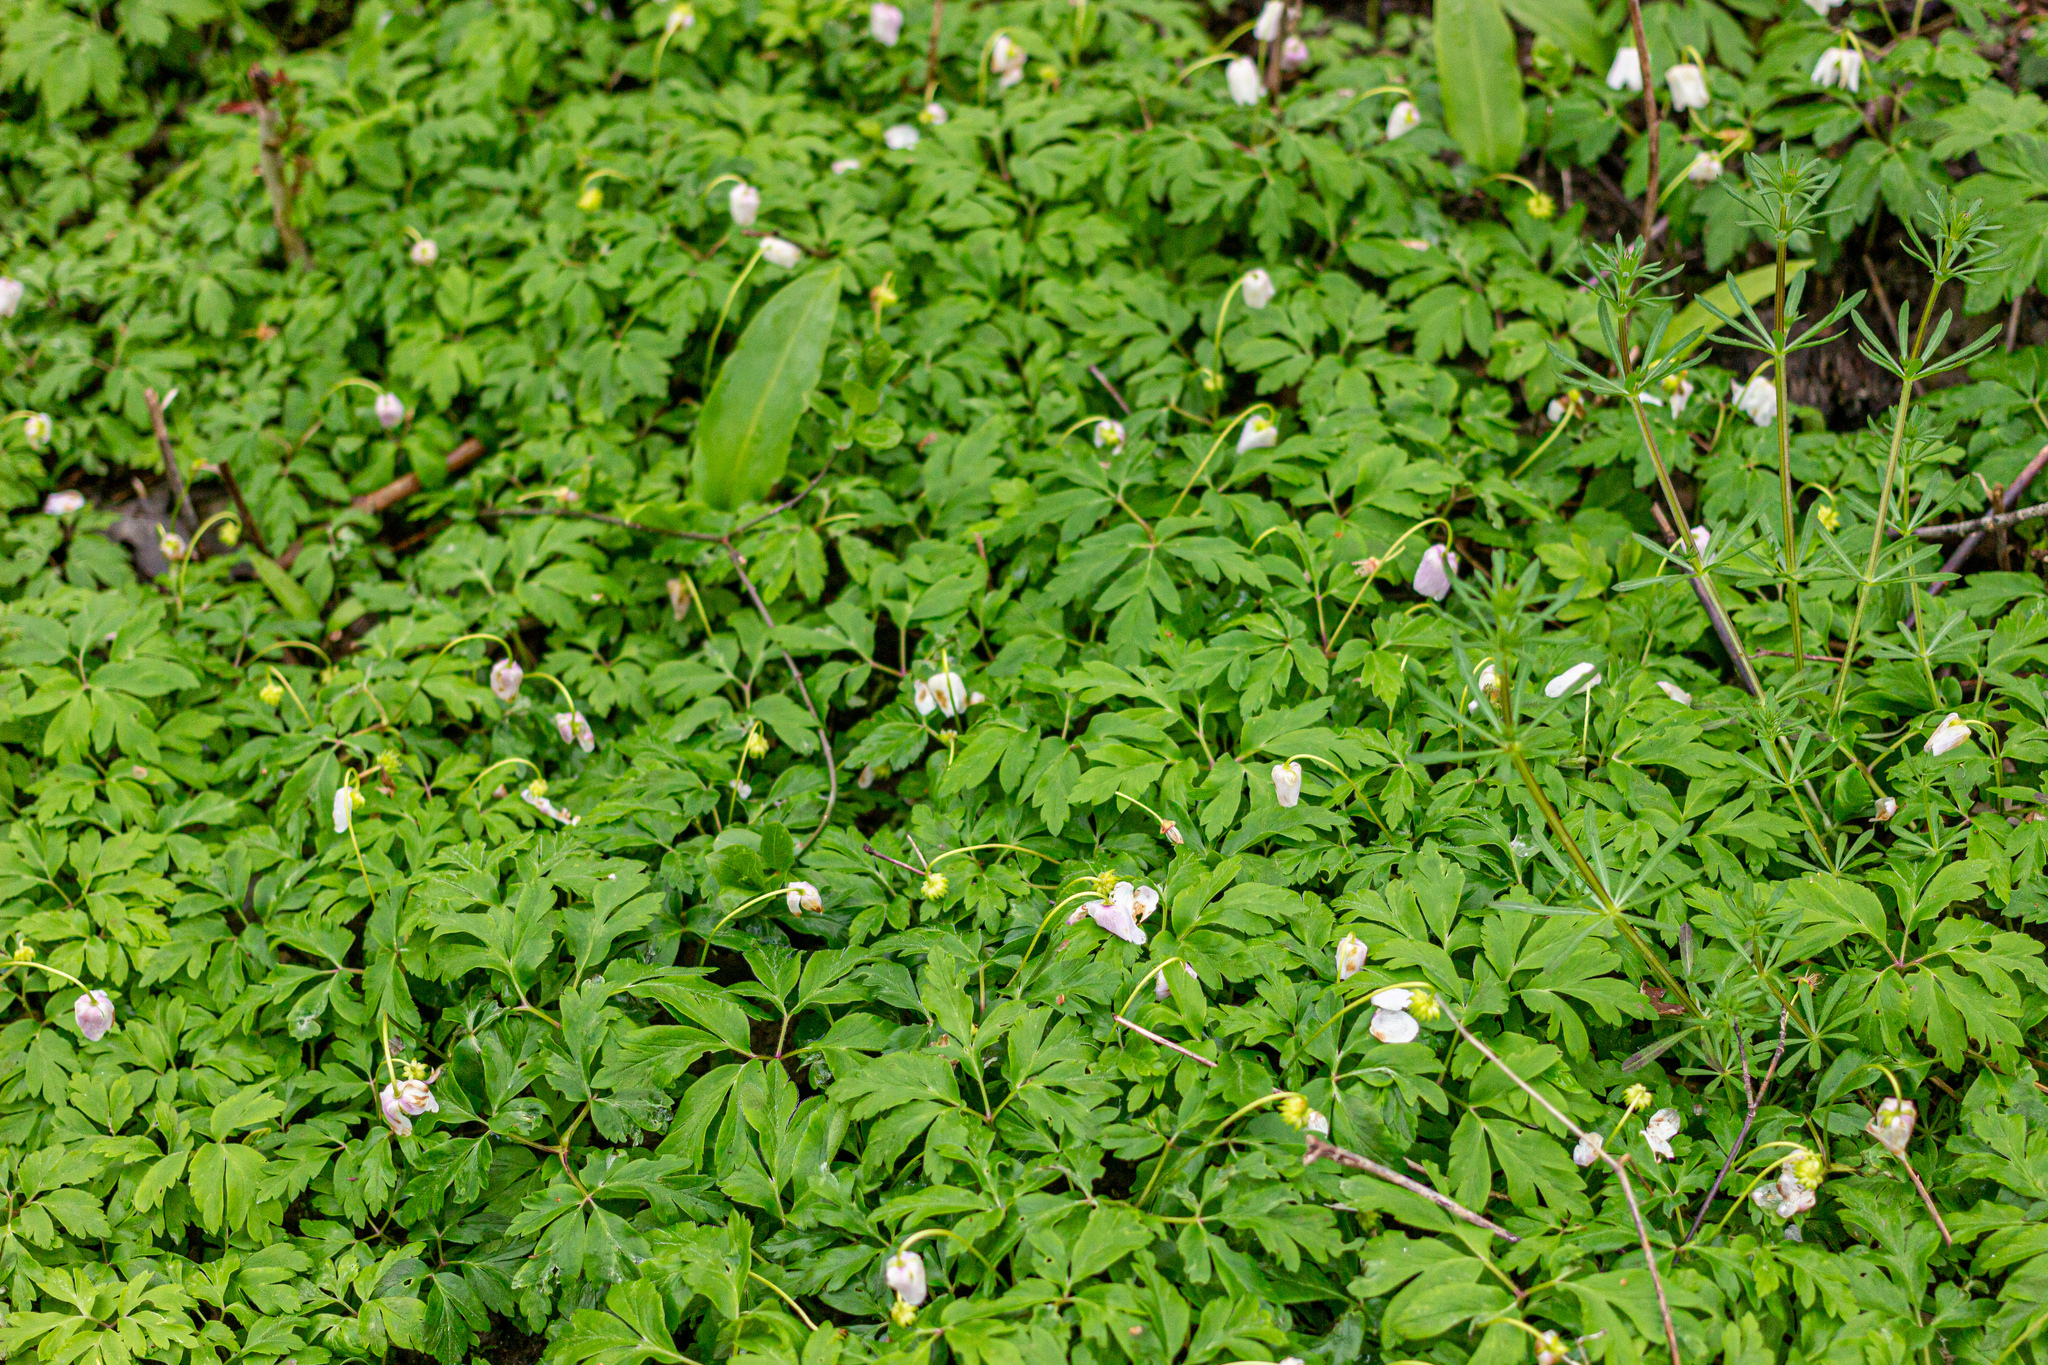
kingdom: Plantae
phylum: Tracheophyta
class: Magnoliopsida
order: Ranunculales
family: Ranunculaceae
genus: Anemone
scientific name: Anemone nemorosa
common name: Wood anemone
